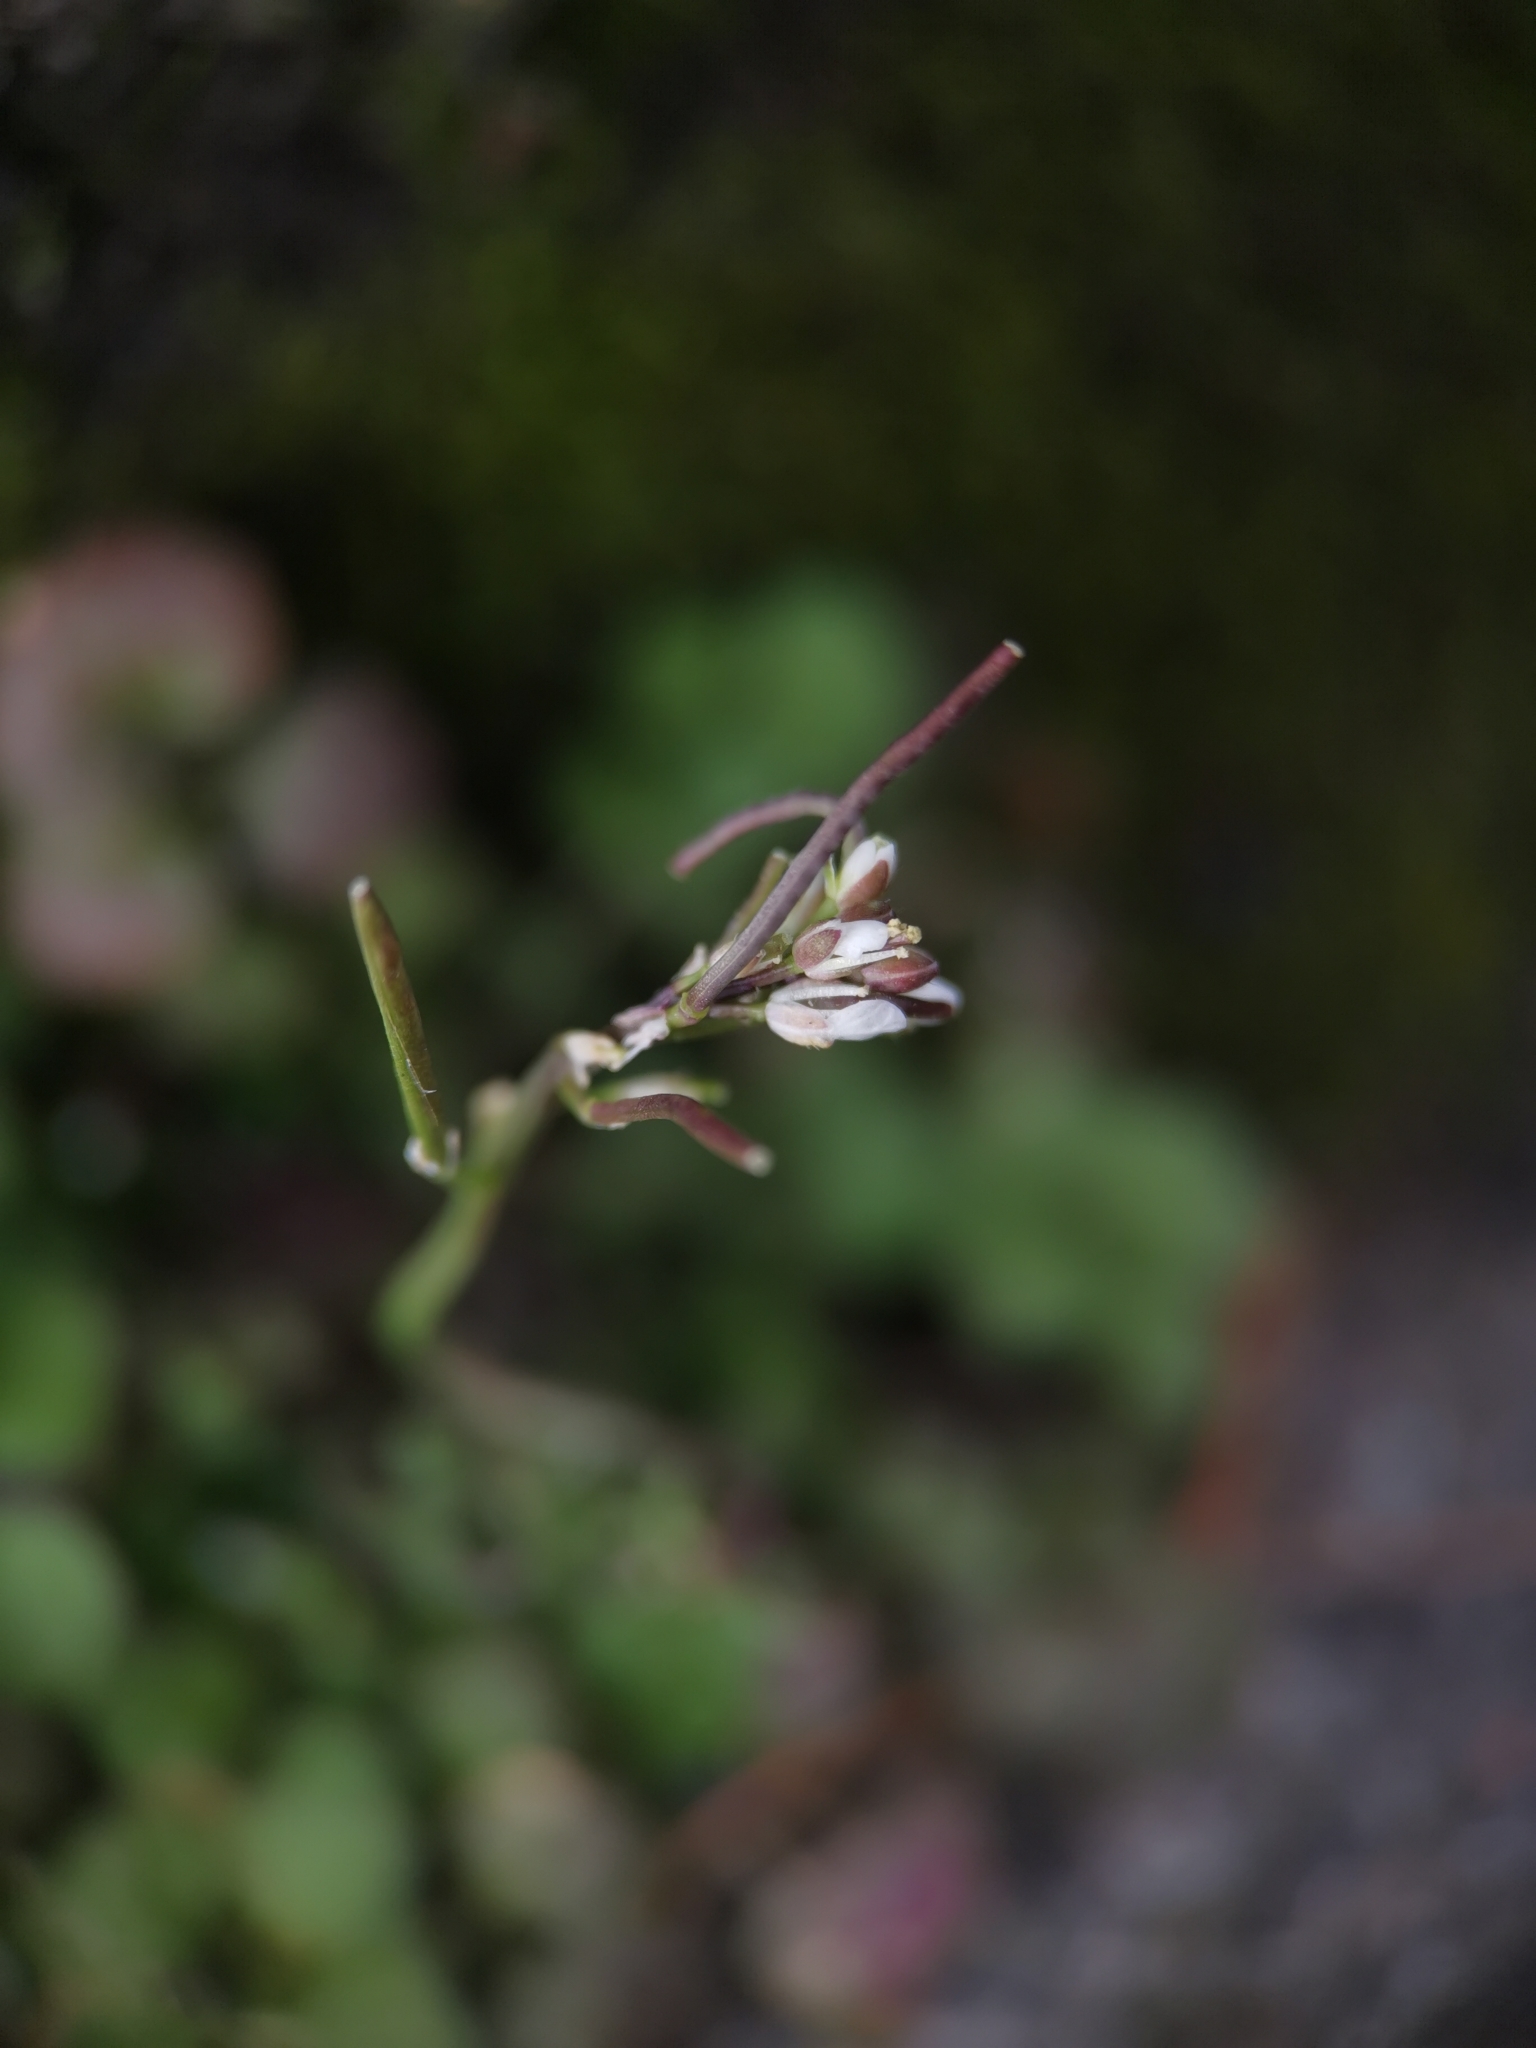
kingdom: Plantae
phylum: Tracheophyta
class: Magnoliopsida
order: Brassicales
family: Brassicaceae
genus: Cardamine
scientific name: Cardamine hirsuta
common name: Hairy bittercress
